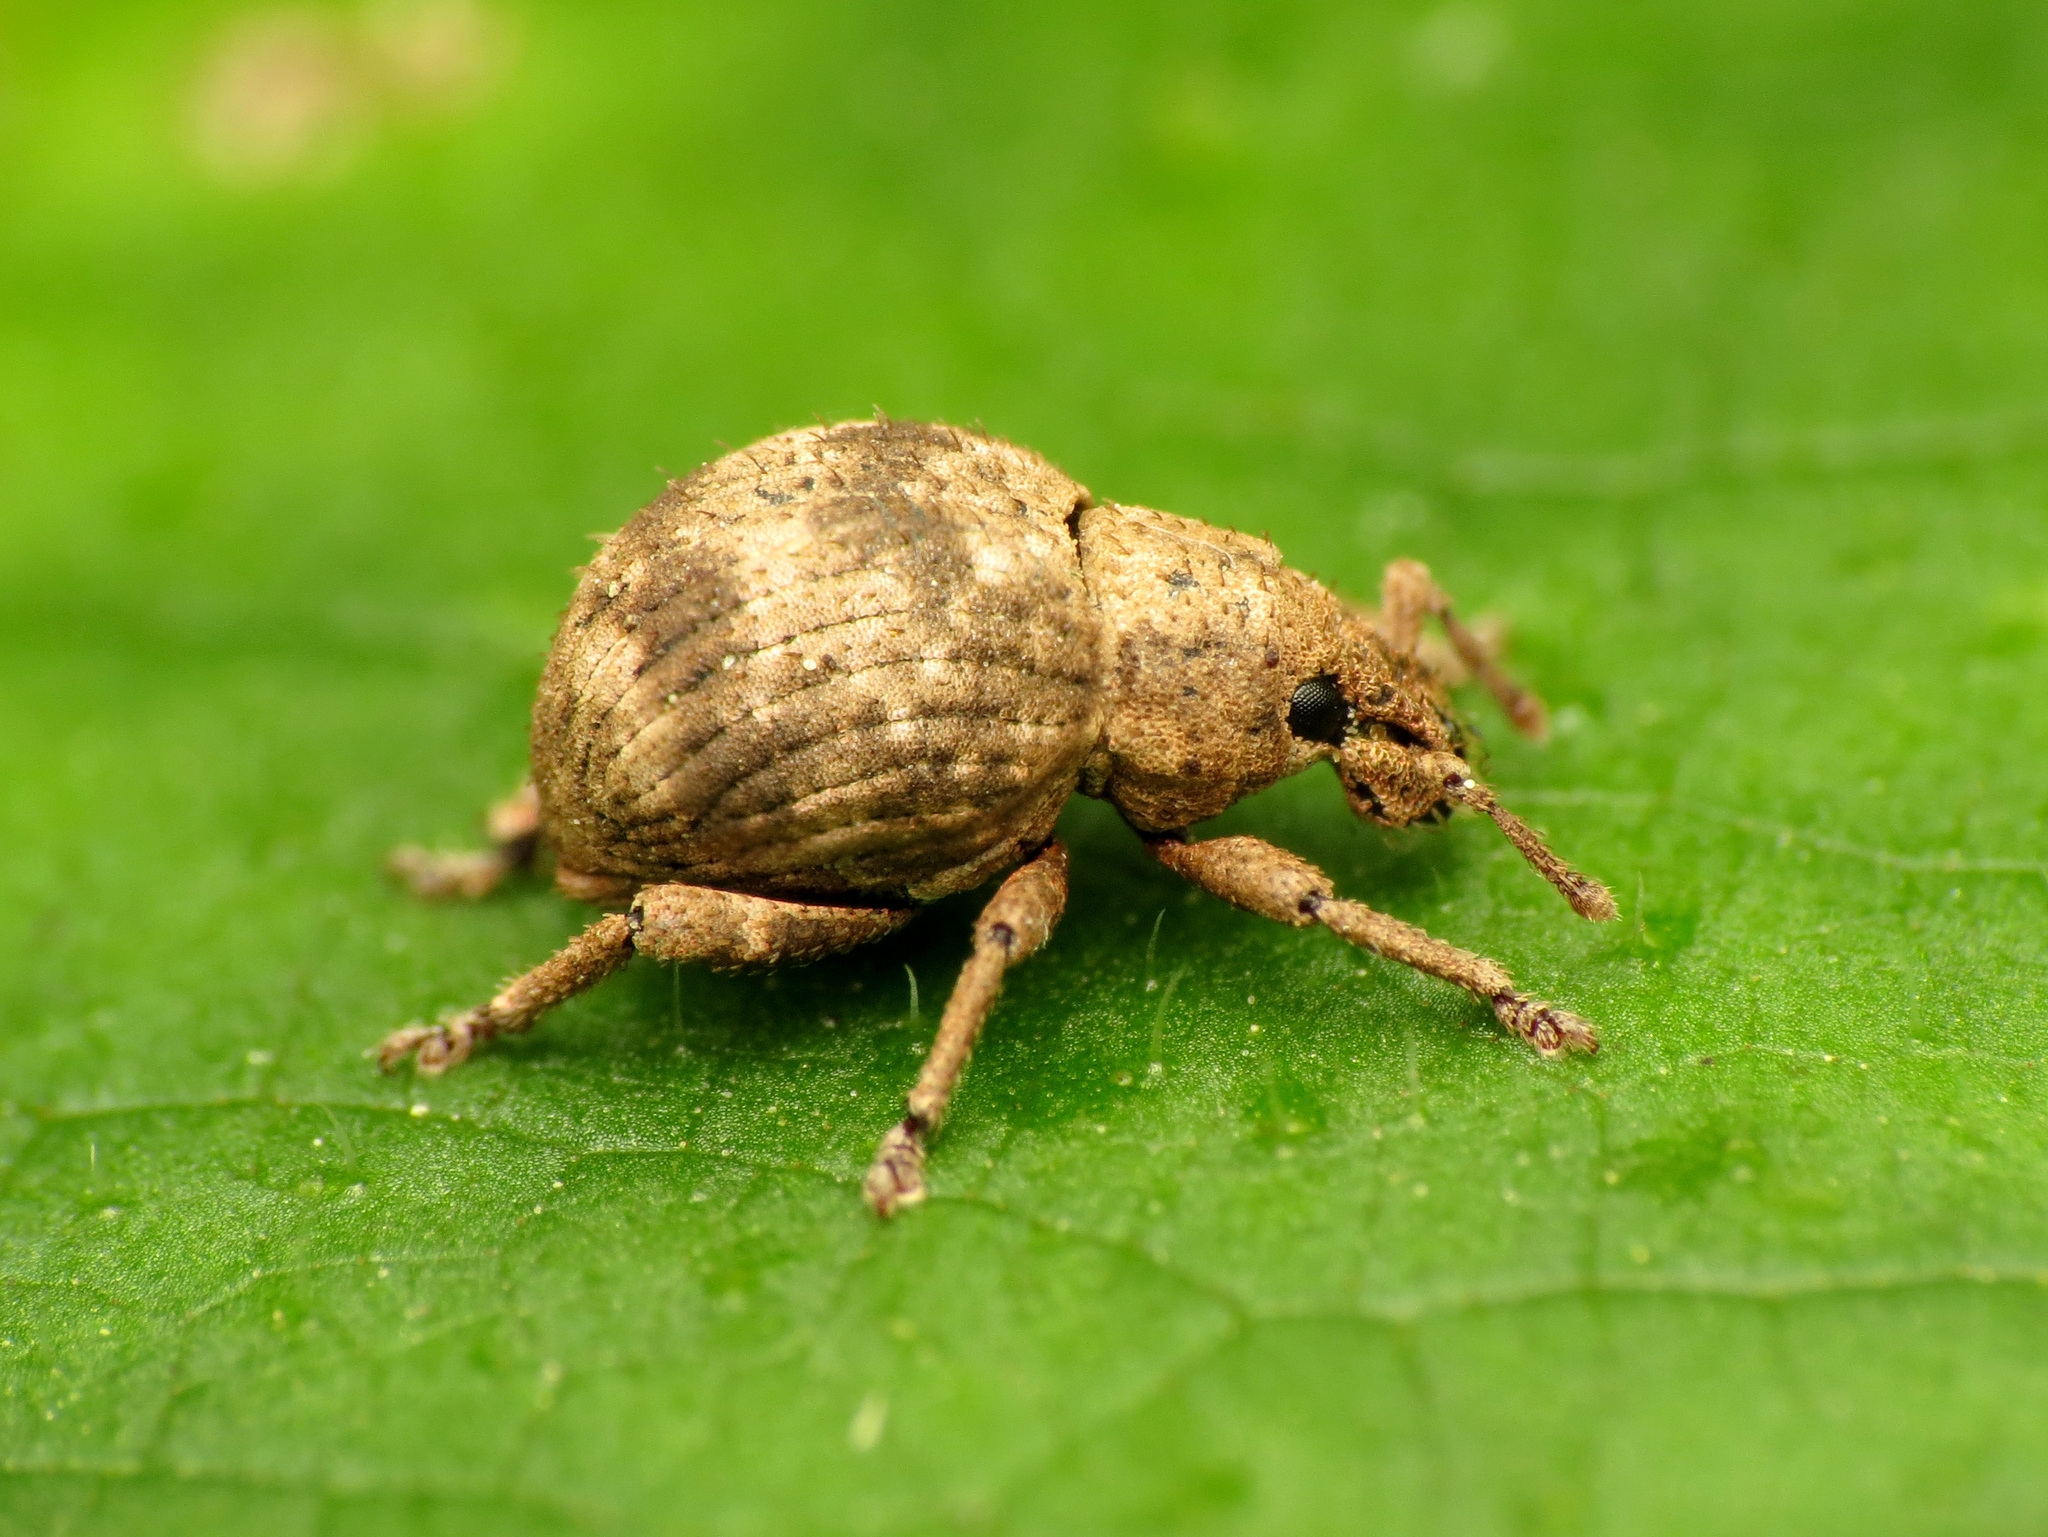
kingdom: Animalia
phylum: Arthropoda
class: Insecta
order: Coleoptera
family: Curculionidae
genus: Pseudocneorhinus
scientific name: Pseudocneorhinus bifasciatus
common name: Two-banded japanese weevil
